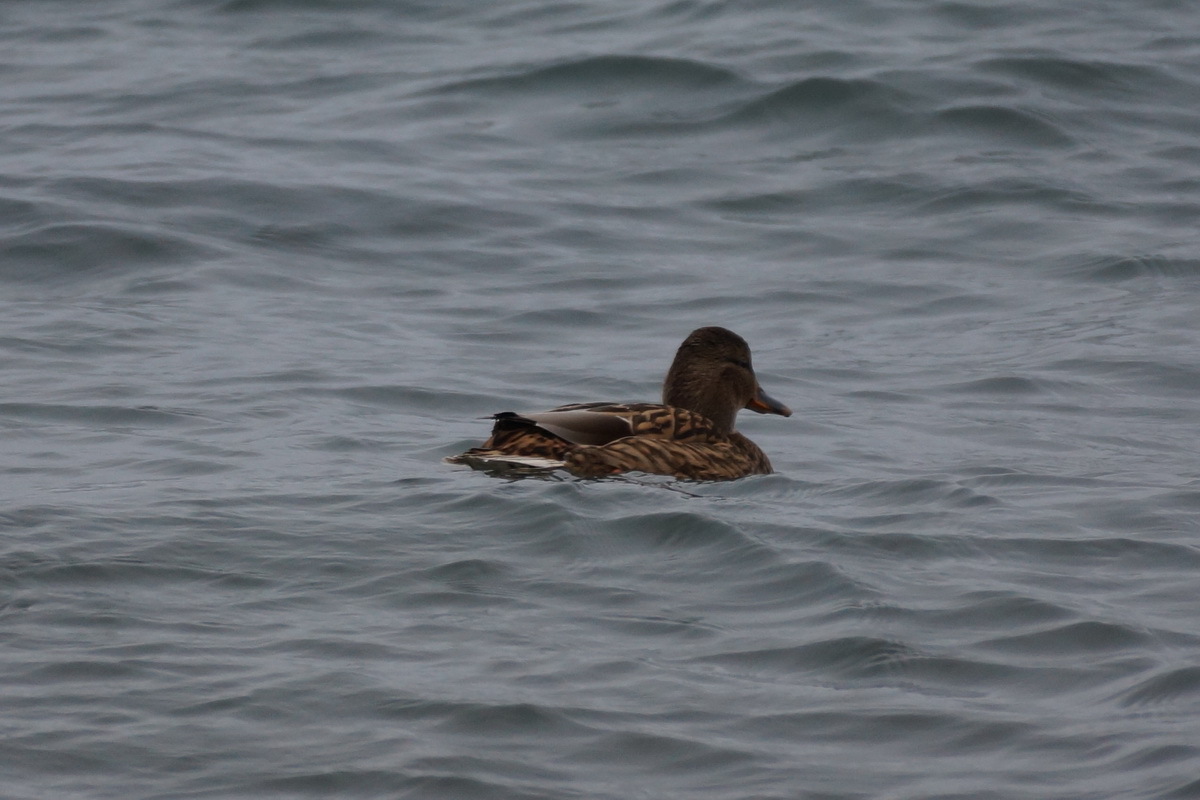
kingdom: Animalia
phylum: Chordata
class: Aves
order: Anseriformes
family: Anatidae
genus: Anas
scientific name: Anas platyrhynchos
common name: Mallard
